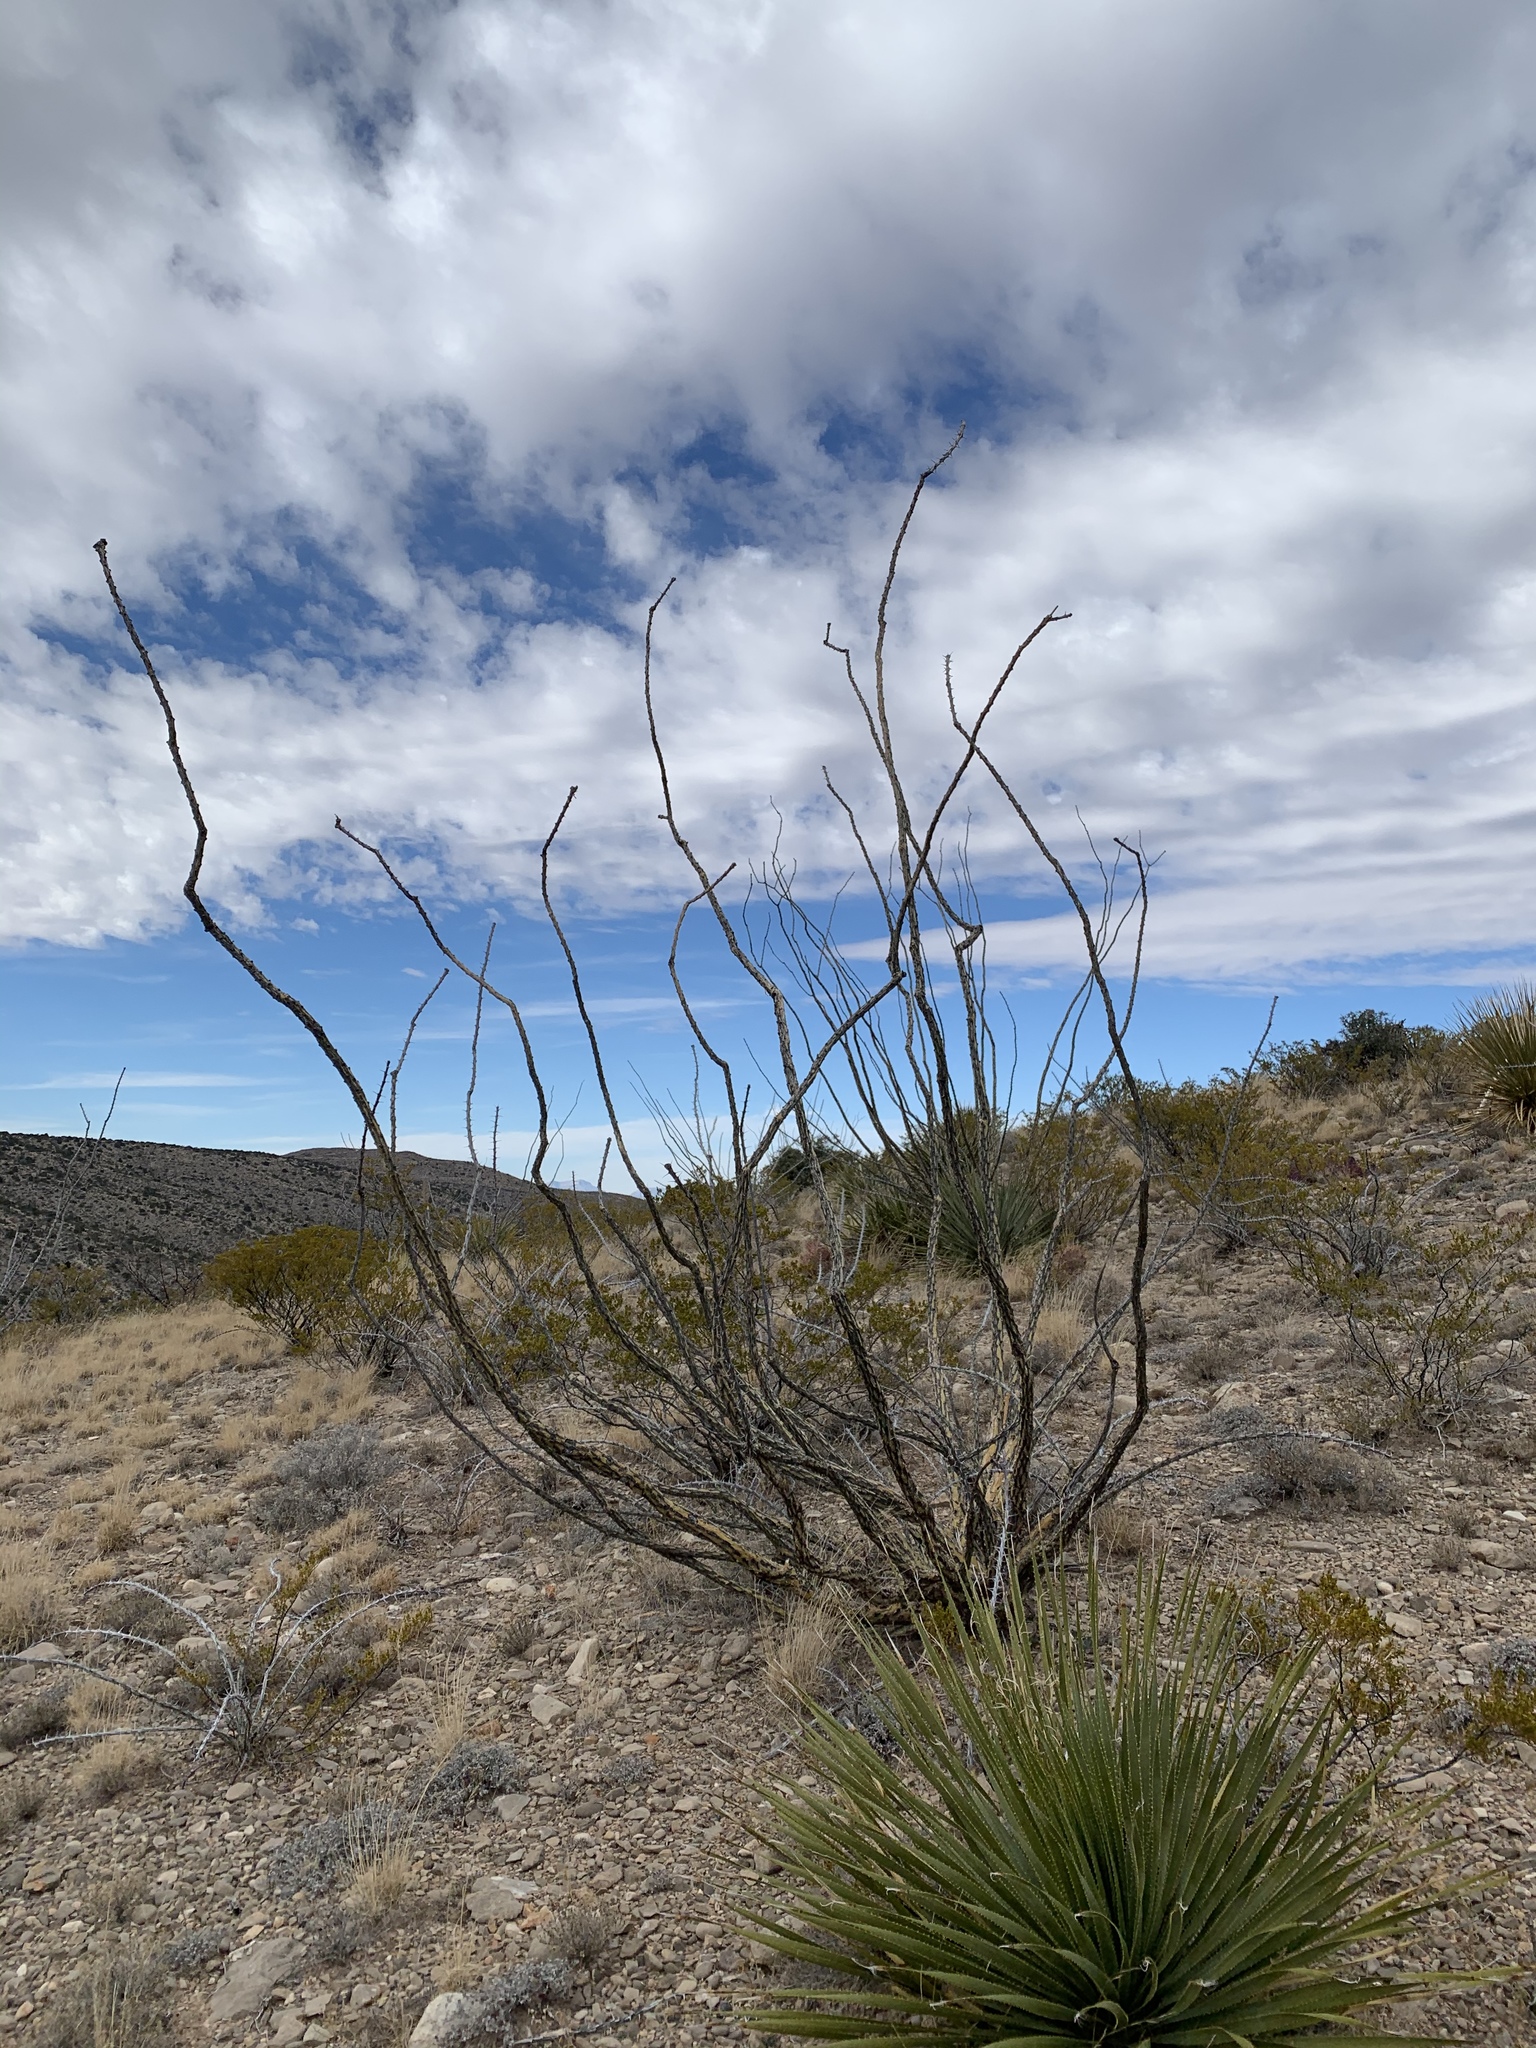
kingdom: Plantae
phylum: Tracheophyta
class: Magnoliopsida
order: Ericales
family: Fouquieriaceae
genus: Fouquieria
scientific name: Fouquieria splendens
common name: Vine-cactus
